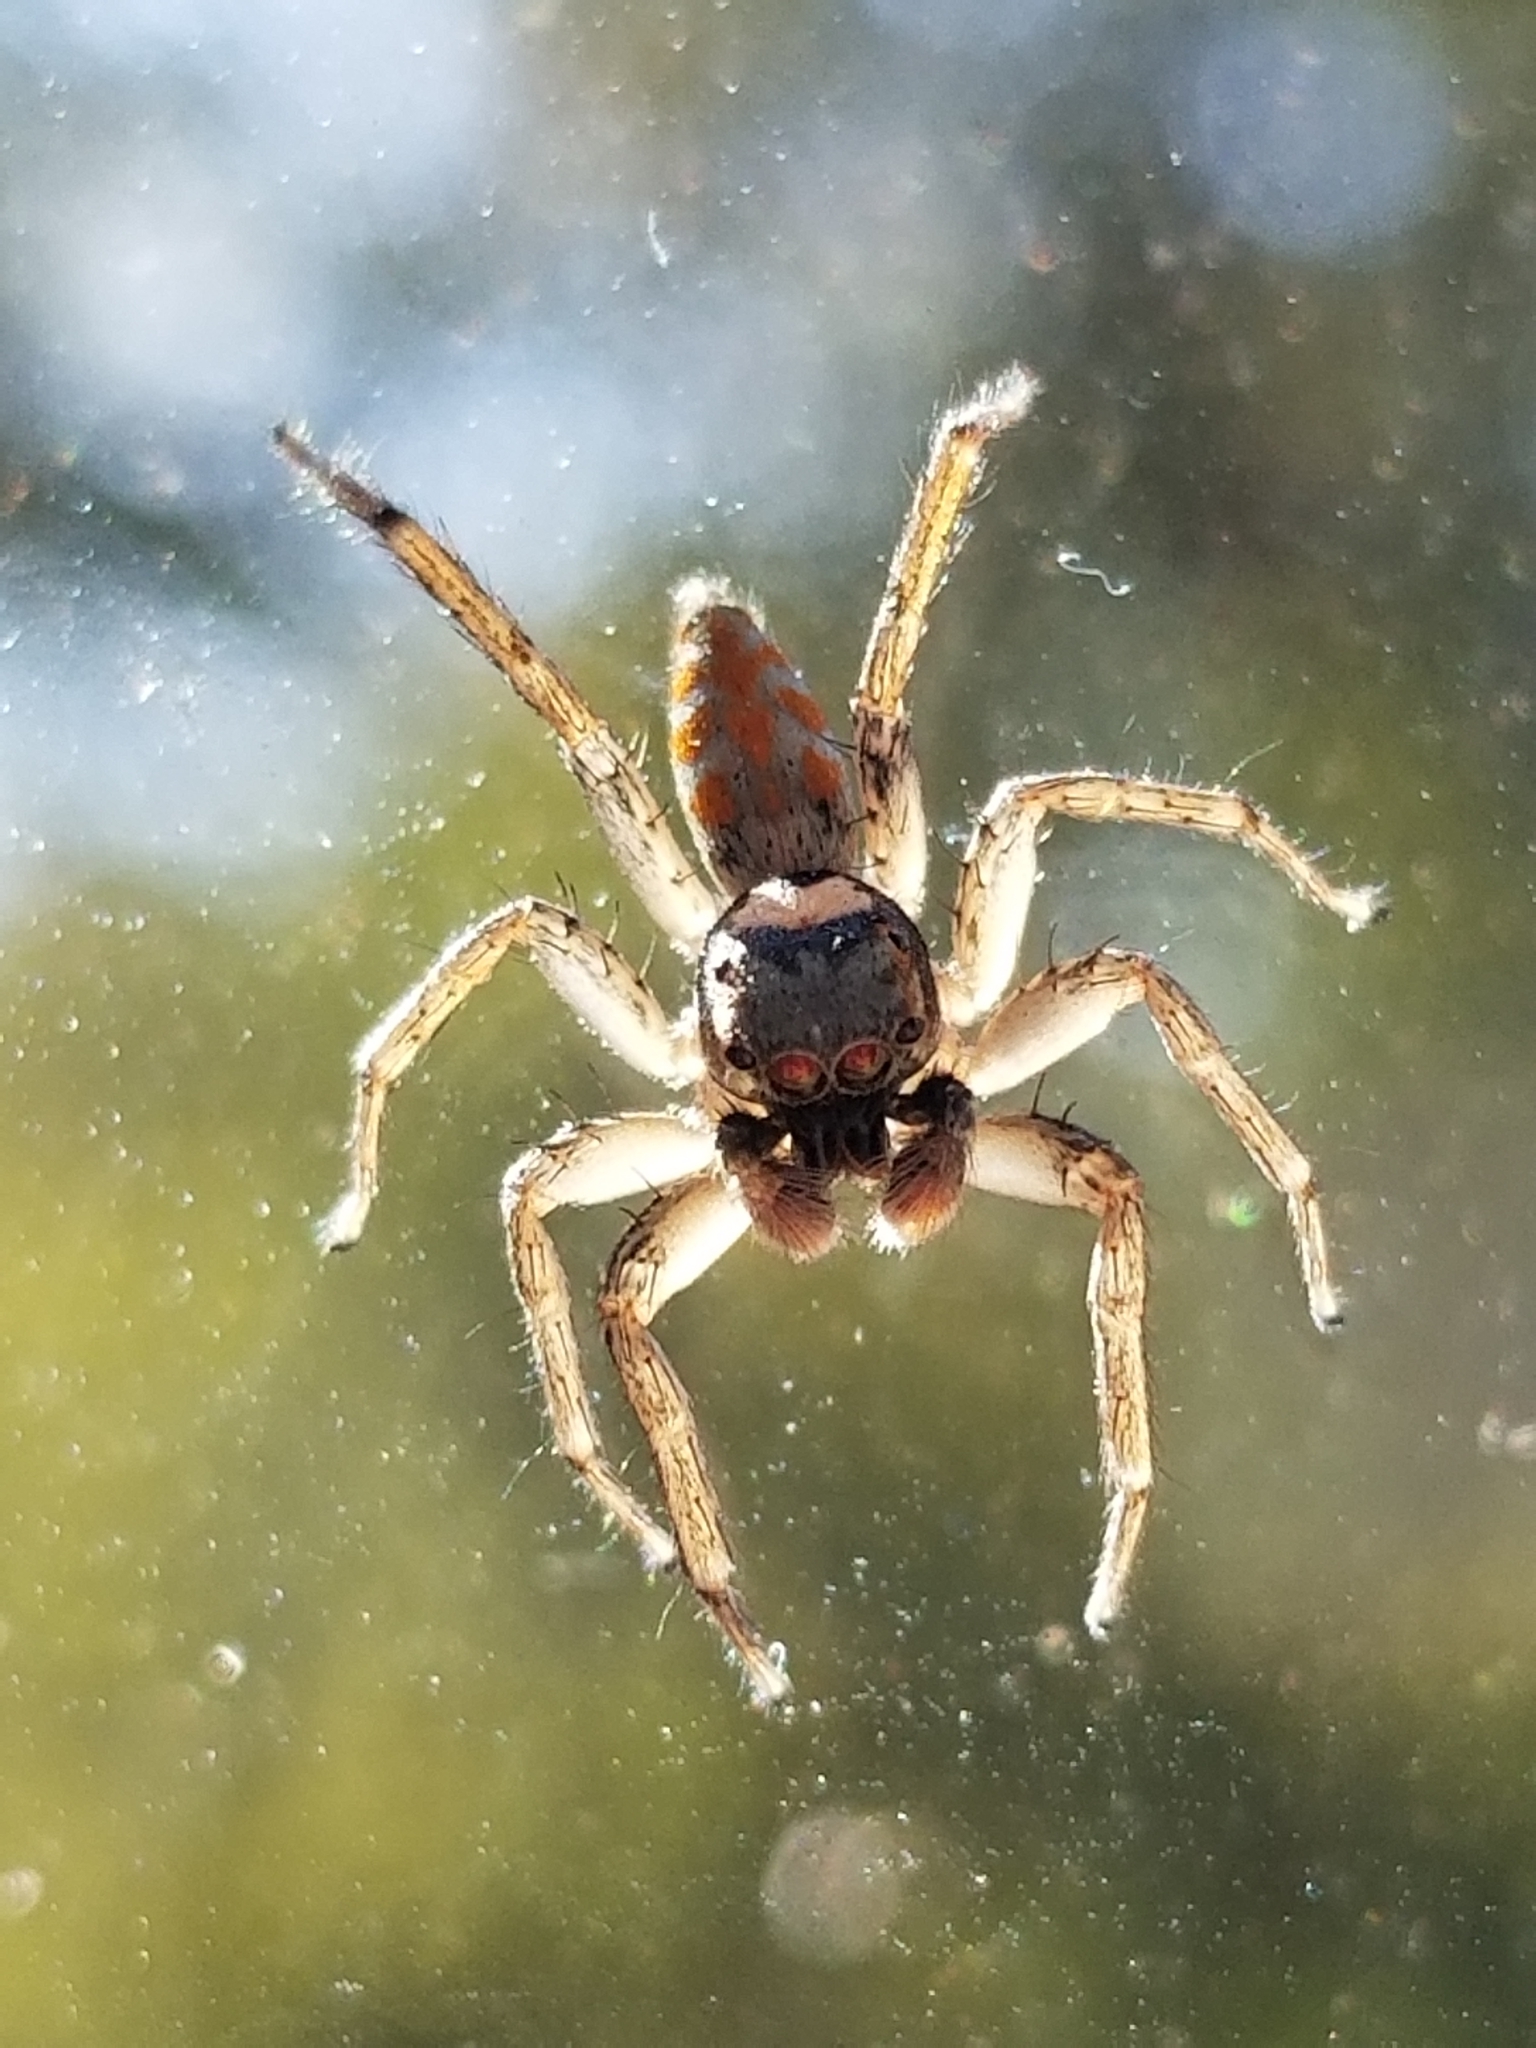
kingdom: Animalia
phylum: Arthropoda
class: Arachnida
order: Araneae
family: Salticidae
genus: Paramaevia
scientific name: Paramaevia poultoni
